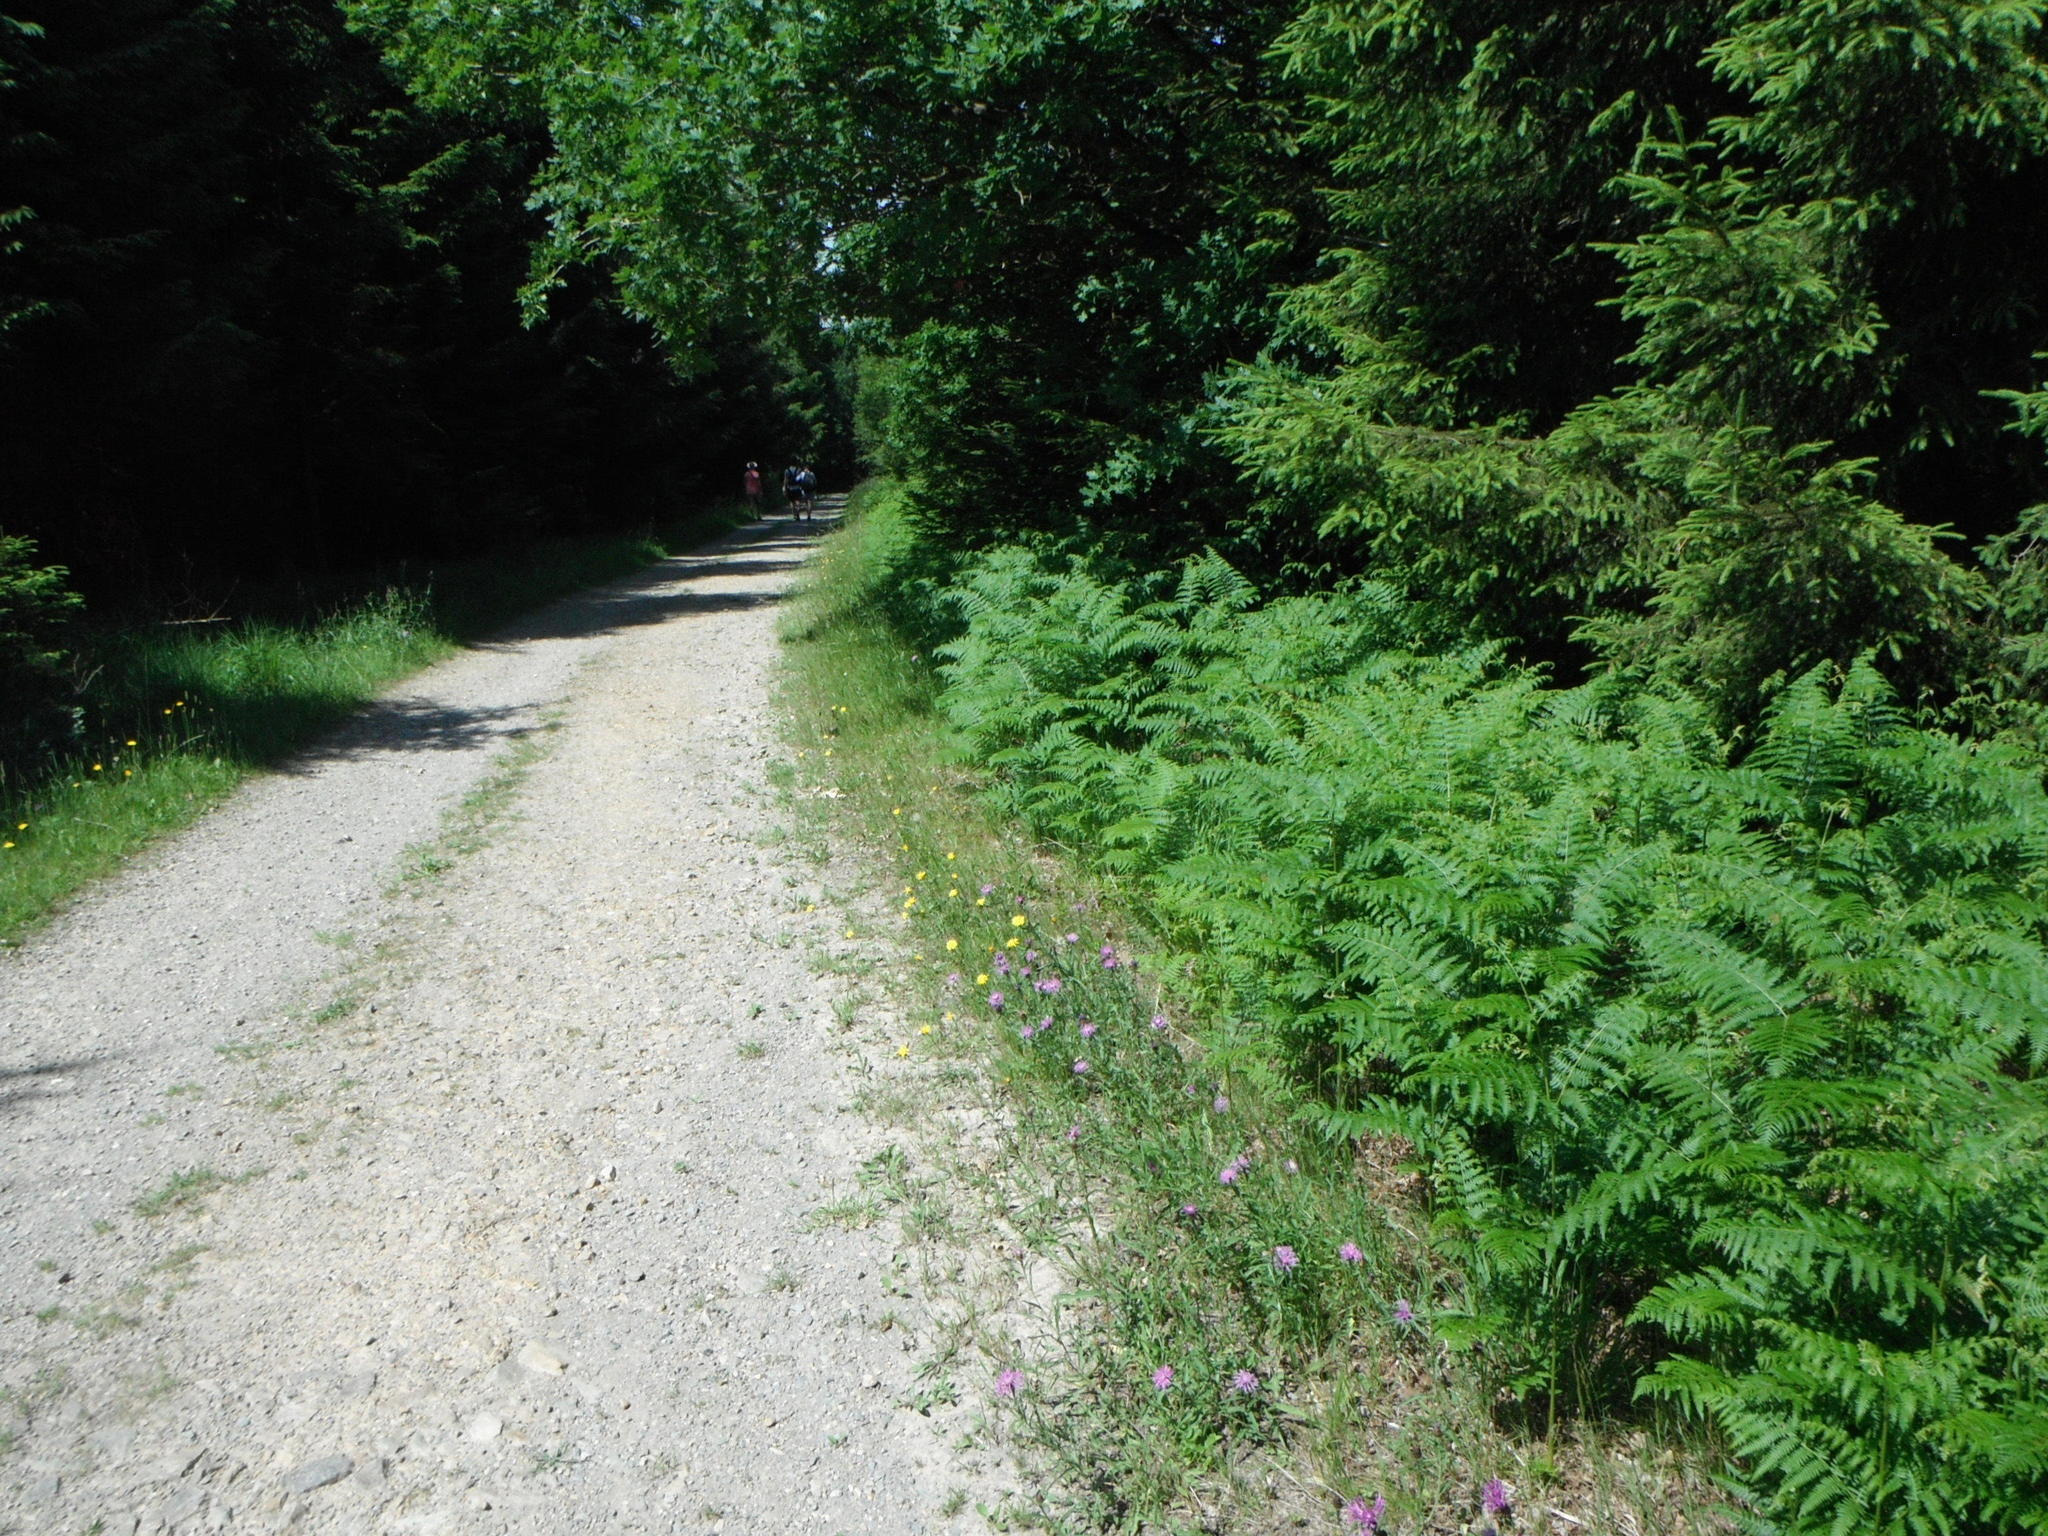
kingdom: Plantae
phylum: Tracheophyta
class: Polypodiopsida
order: Polypodiales
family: Dennstaedtiaceae
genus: Pteridium
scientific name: Pteridium aquilinum
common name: Bracken
